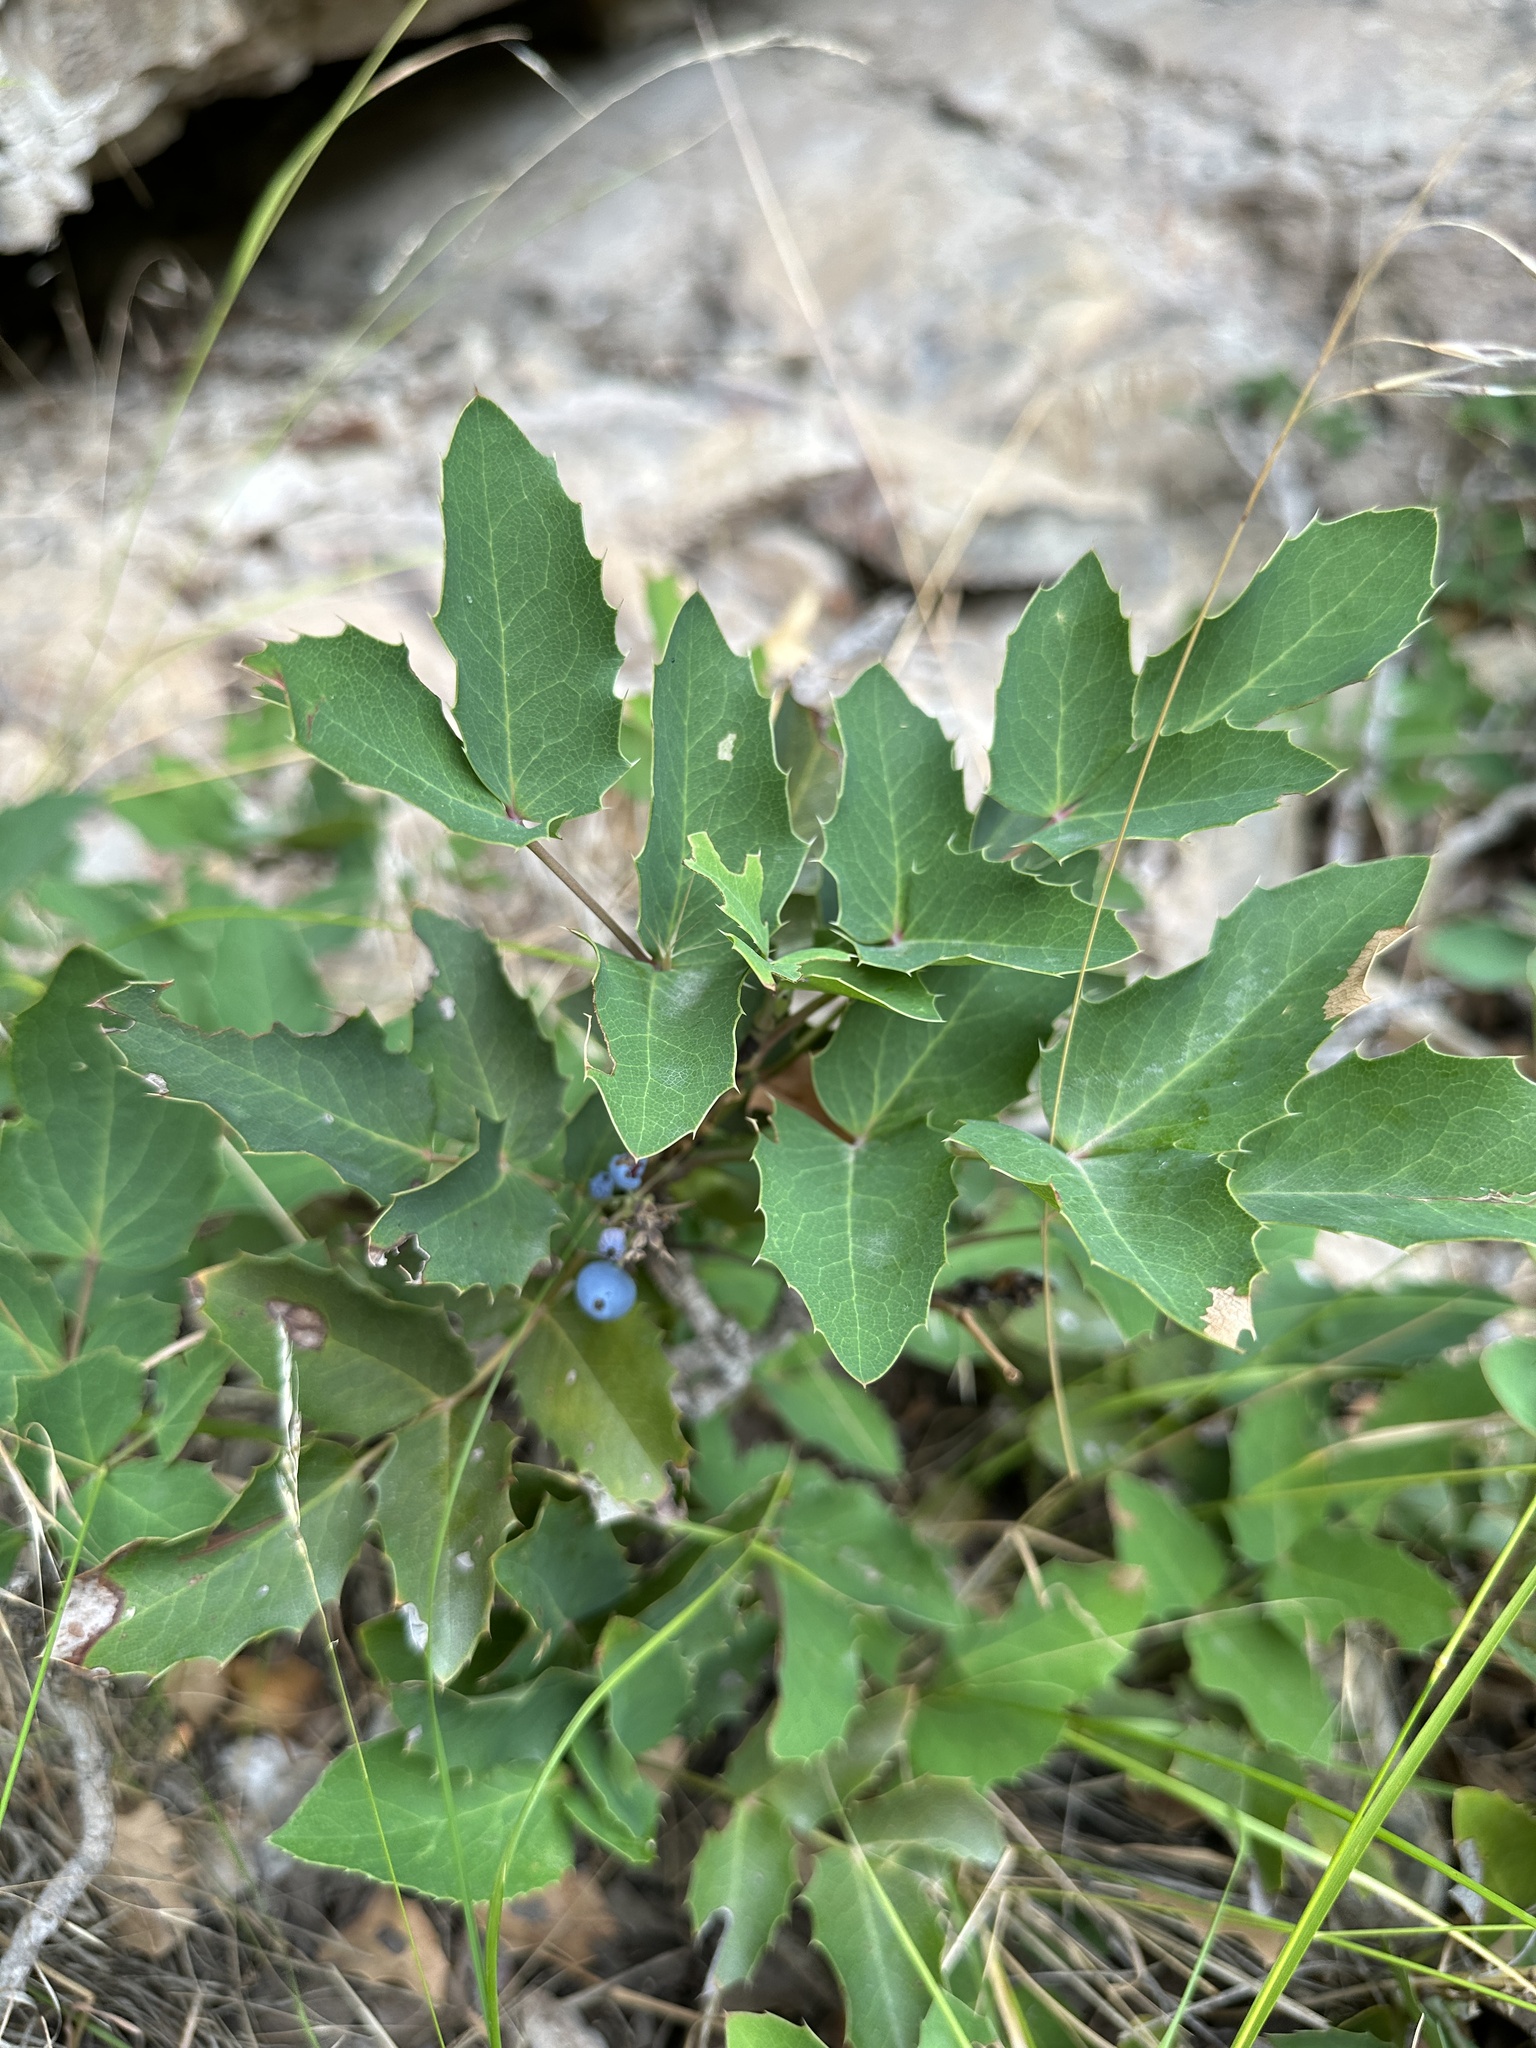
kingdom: Plantae
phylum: Tracheophyta
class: Magnoliopsida
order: Ranunculales
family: Berberidaceae
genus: Mahonia
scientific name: Mahonia repens
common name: Creeping oregon-grape
